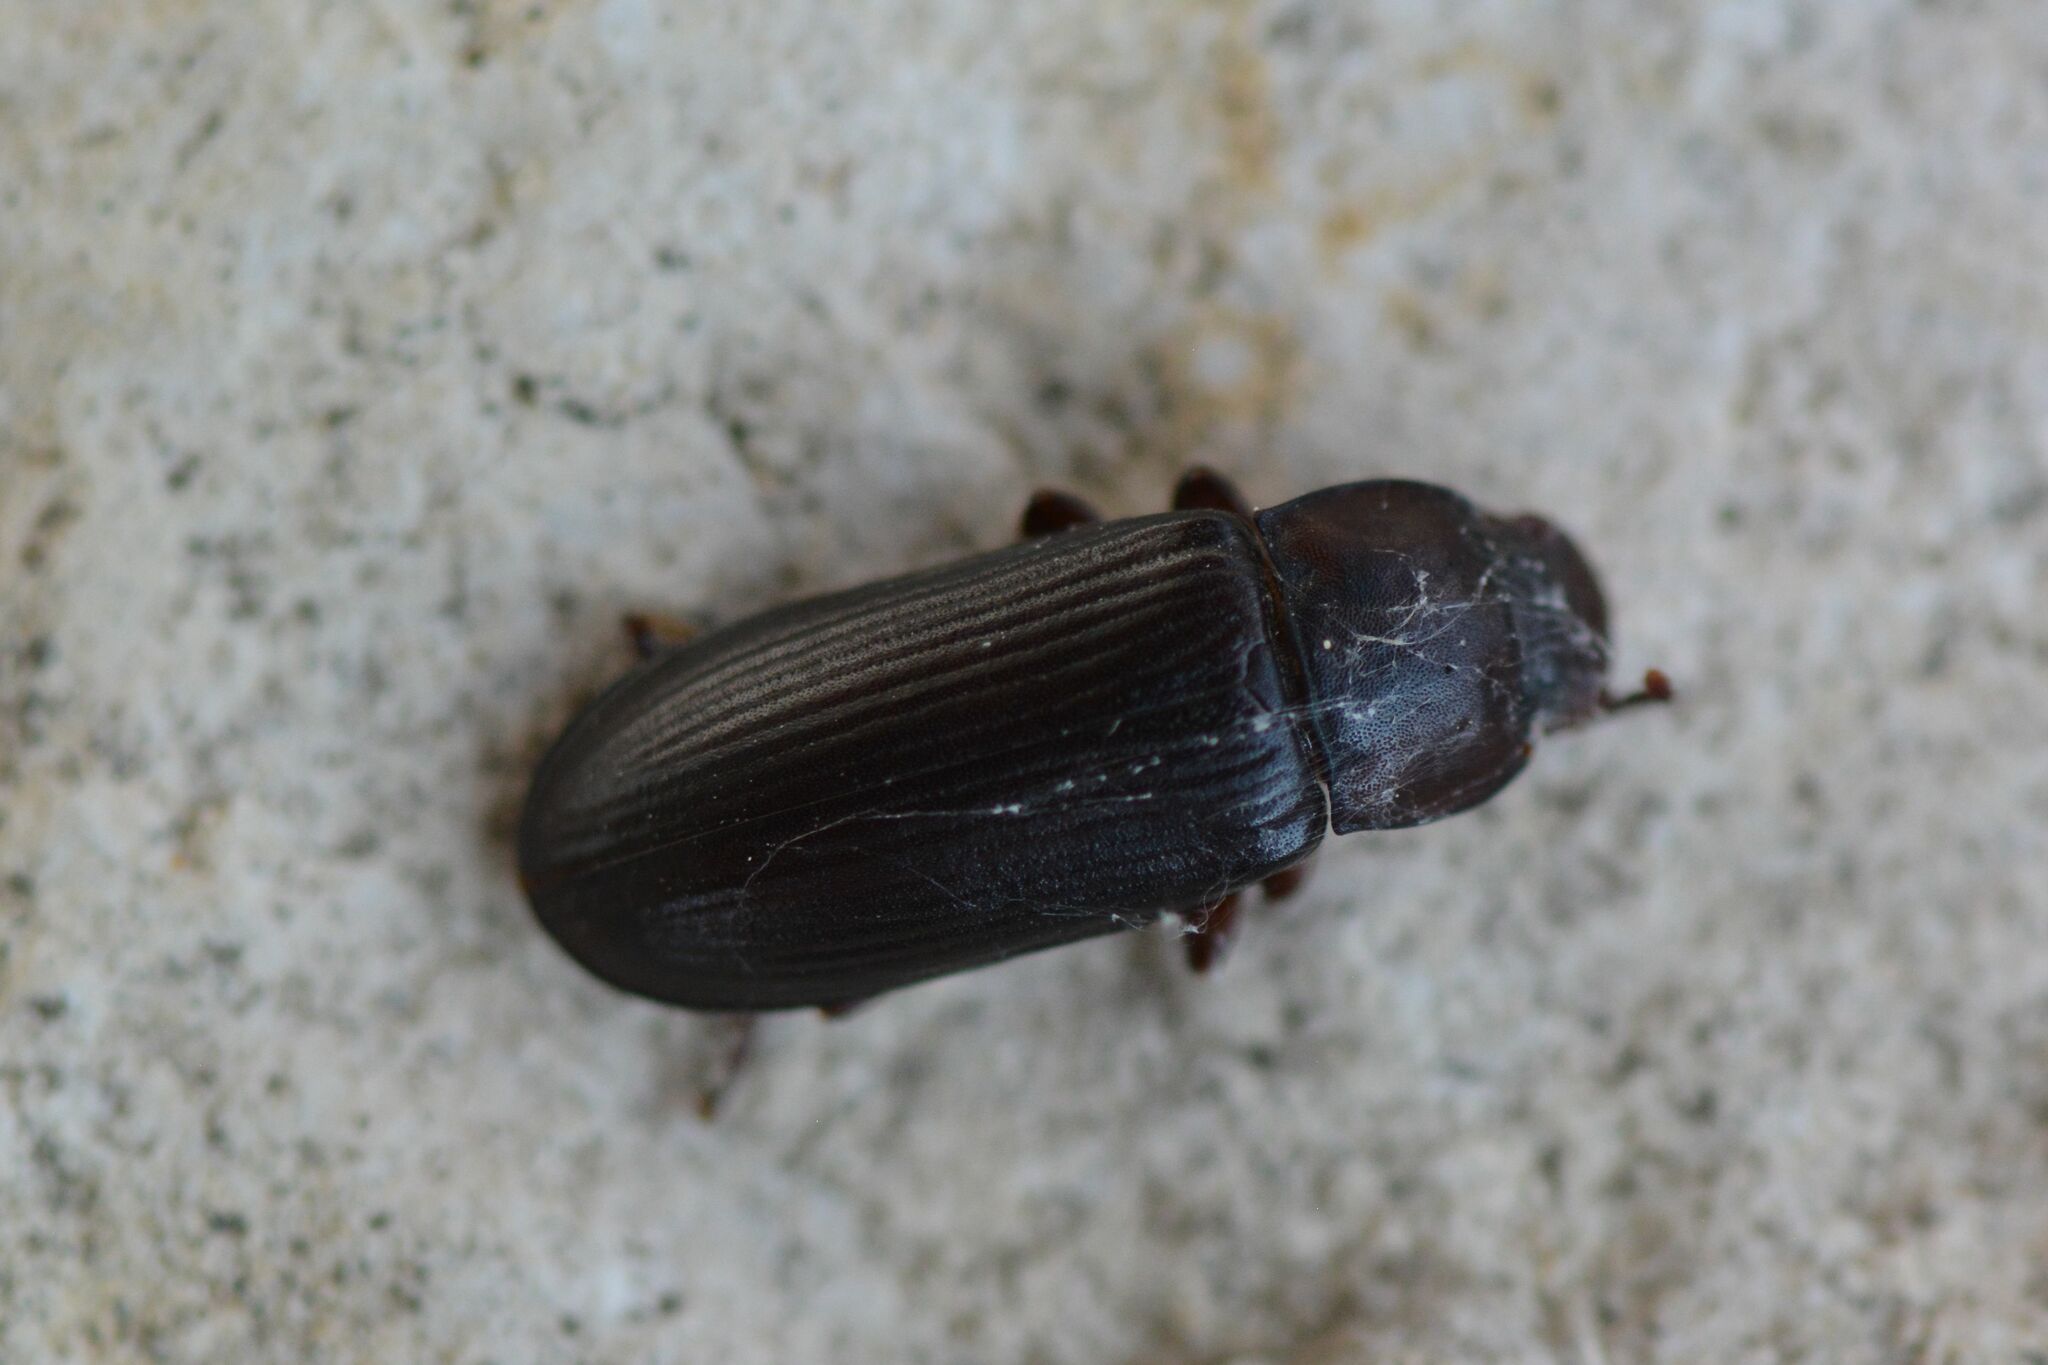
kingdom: Animalia
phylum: Arthropoda
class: Insecta
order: Coleoptera
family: Tenebrionidae
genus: Tenebrio
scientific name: Tenebrio molitor
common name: Hardback beetle
